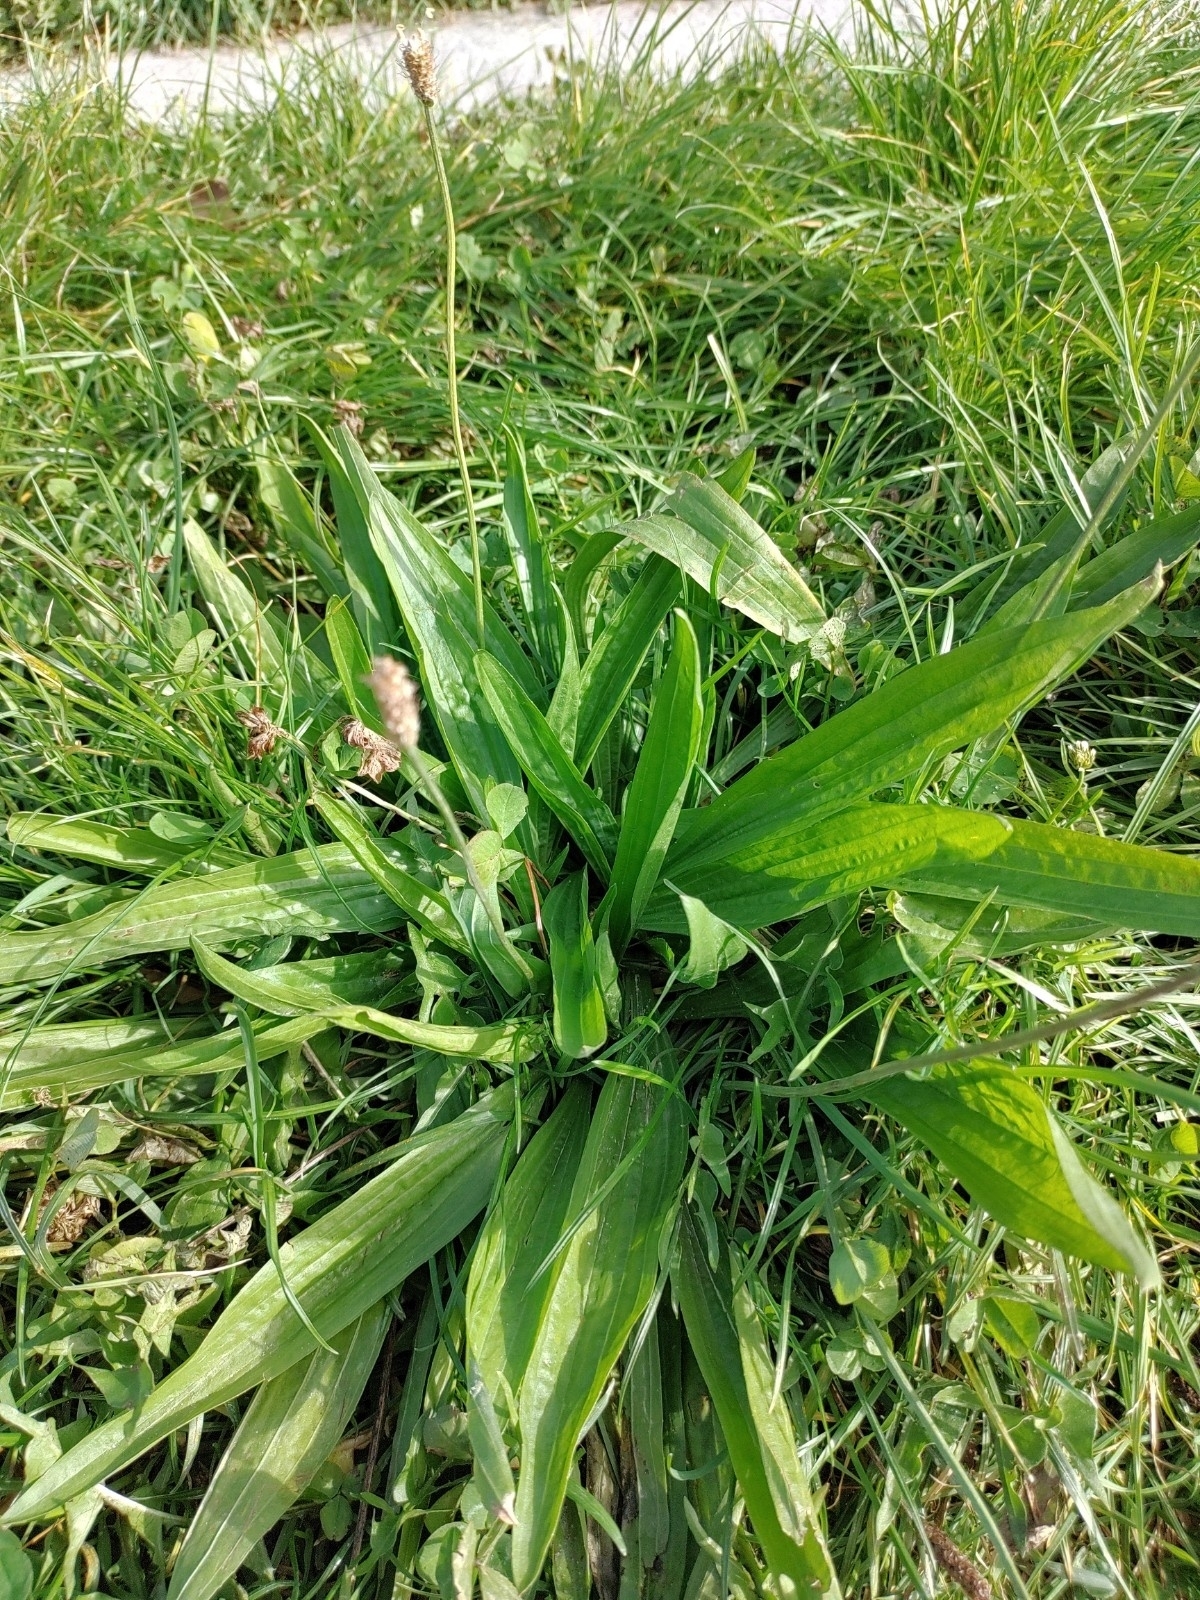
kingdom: Plantae
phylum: Tracheophyta
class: Magnoliopsida
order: Lamiales
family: Plantaginaceae
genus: Plantago
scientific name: Plantago lanceolata
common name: Ribwort plantain
